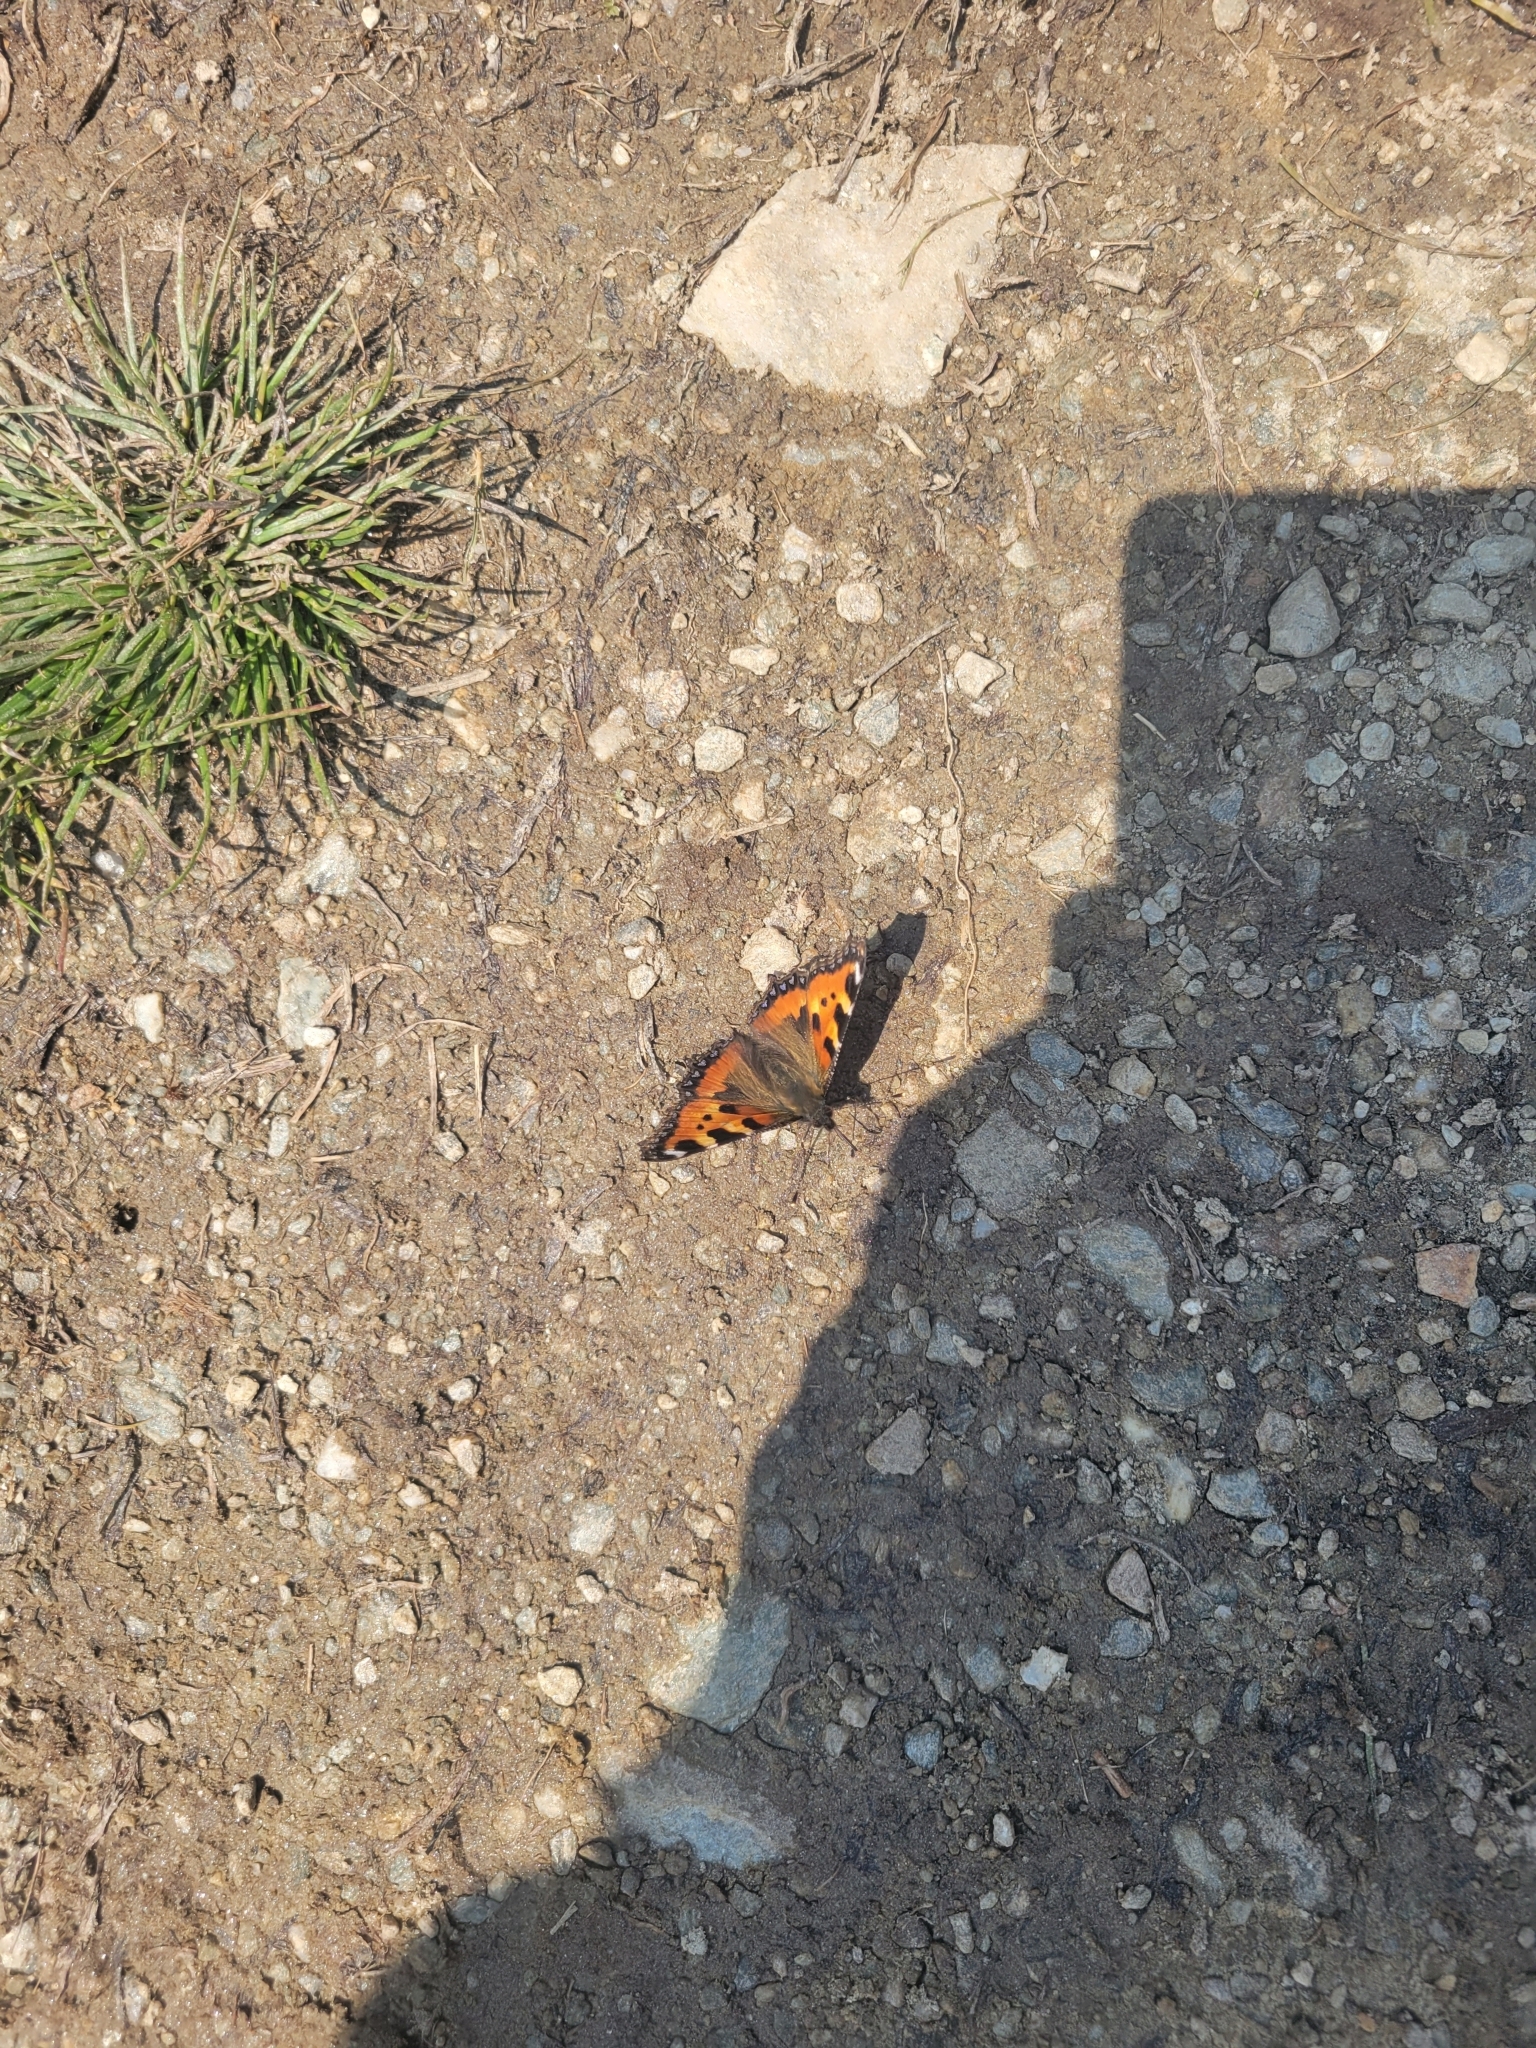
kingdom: Animalia
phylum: Arthropoda
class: Insecta
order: Lepidoptera
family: Nymphalidae
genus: Aglais
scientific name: Aglais urticae
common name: Small tortoiseshell
